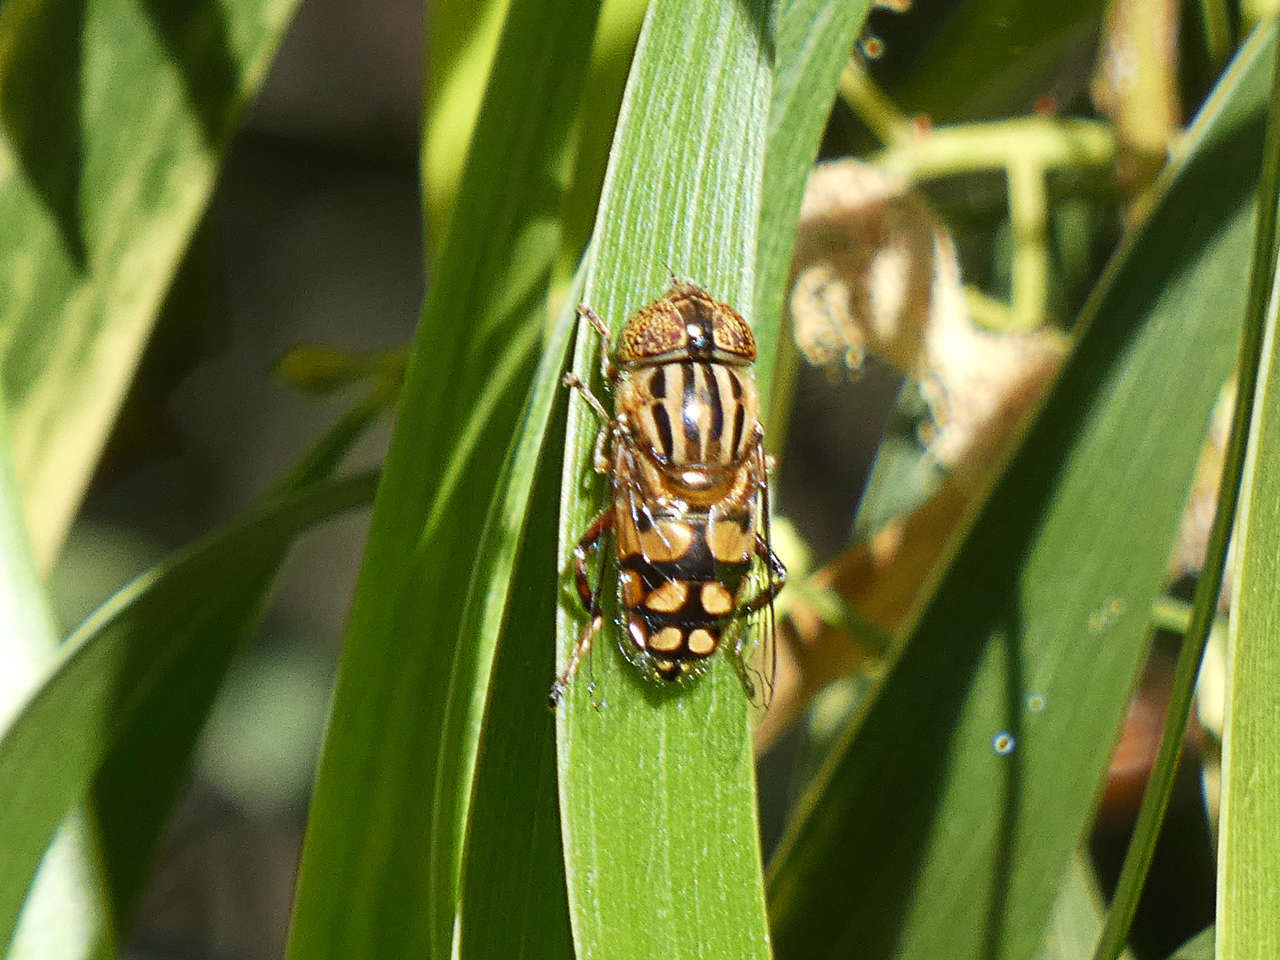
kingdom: Animalia
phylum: Arthropoda
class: Insecta
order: Diptera
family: Syrphidae
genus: Eristalinus
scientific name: Eristalinus punctulatus
